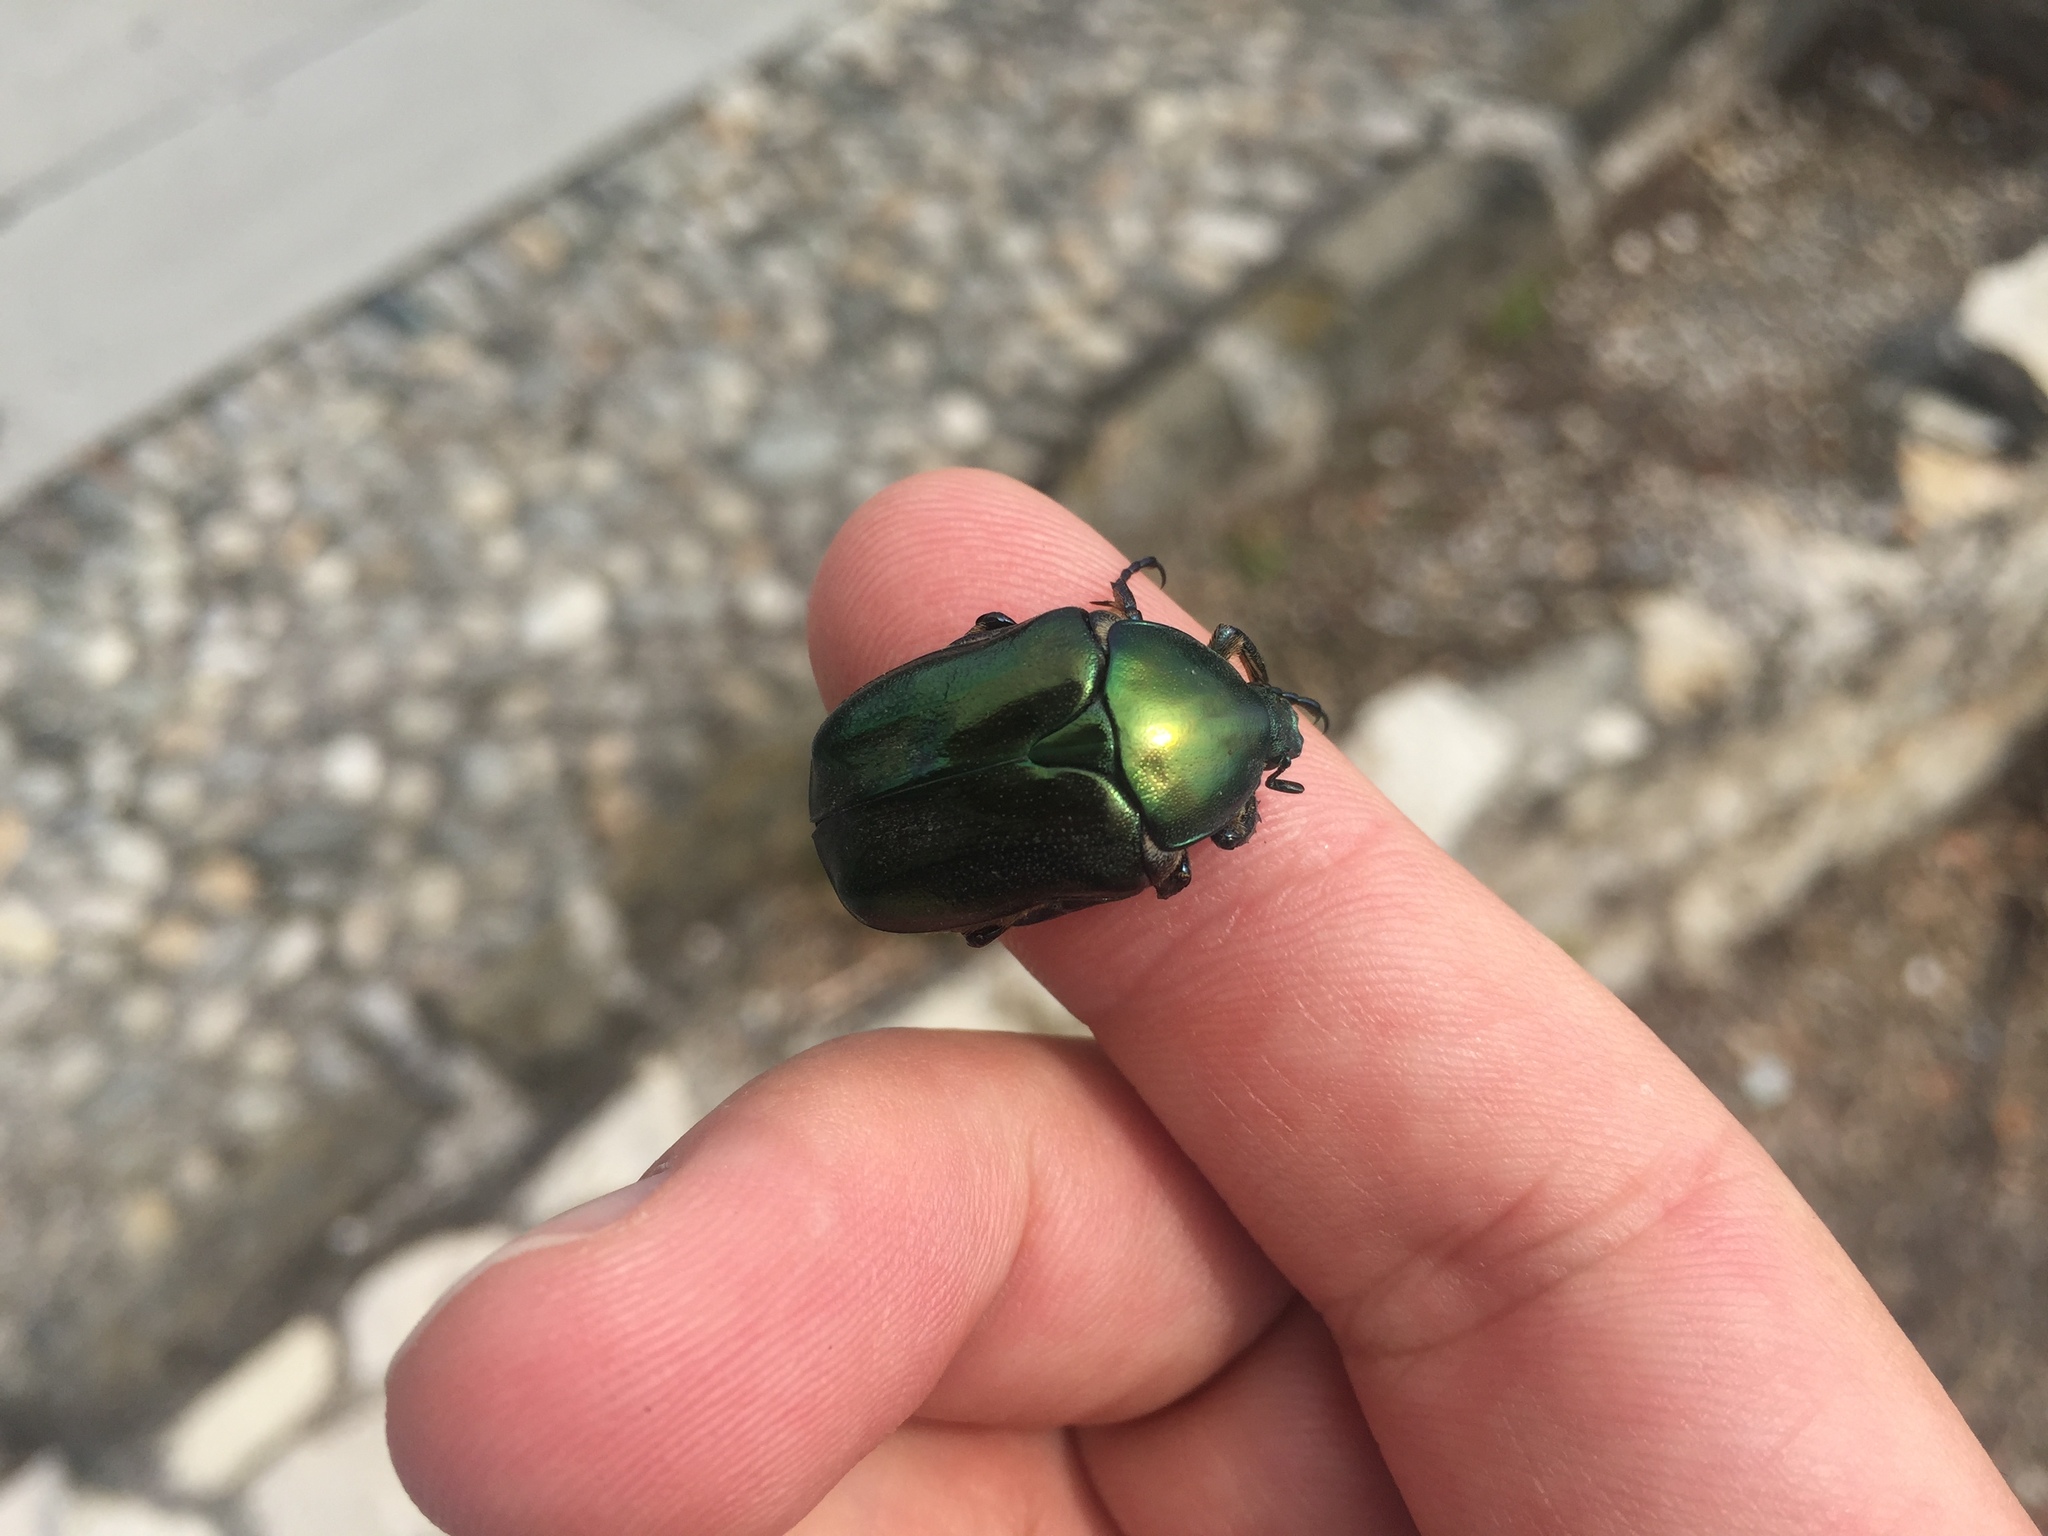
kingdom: Animalia
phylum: Arthropoda
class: Insecta
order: Coleoptera
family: Scarabaeidae
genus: Protaetia
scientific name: Protaetia angustata
